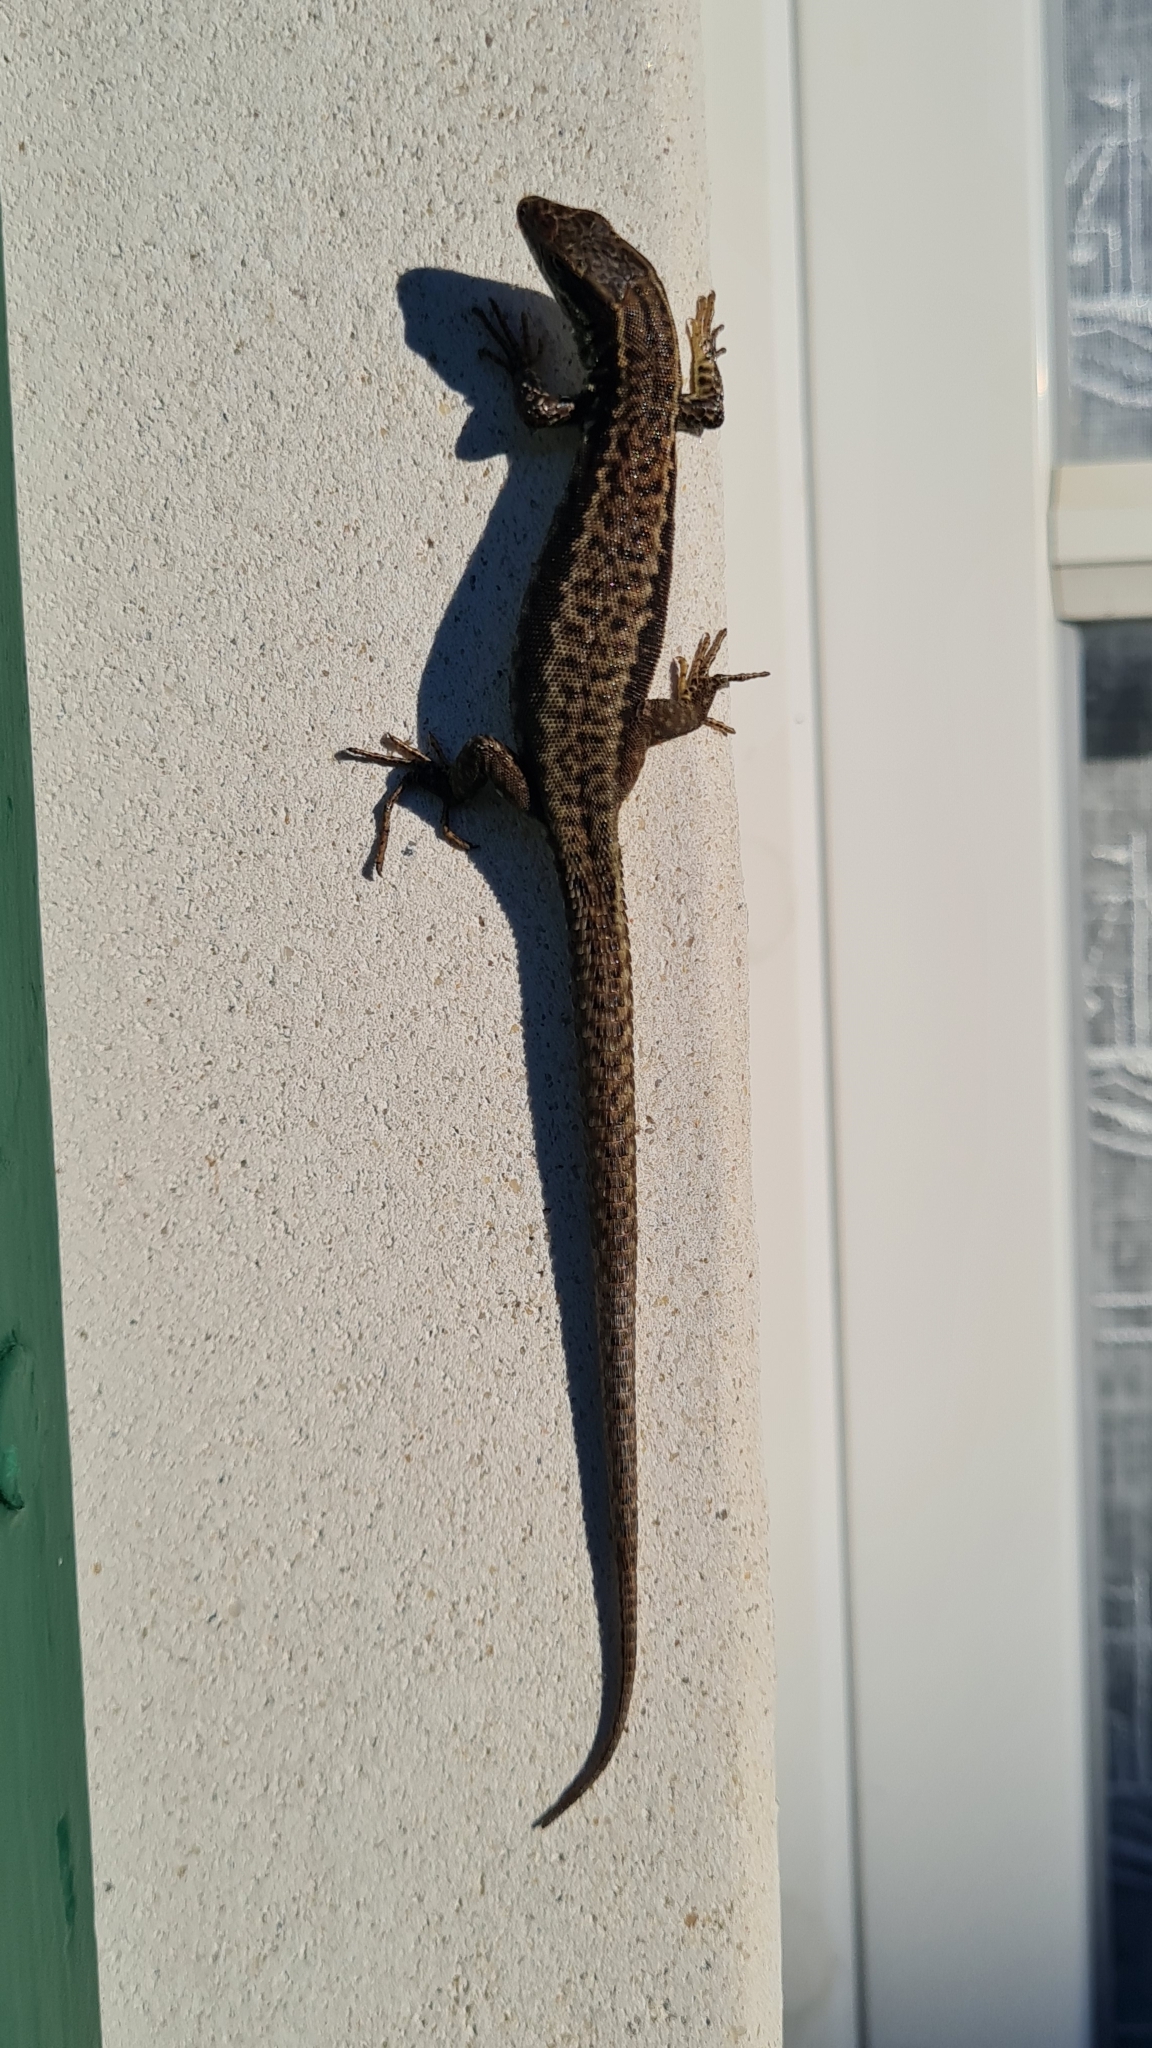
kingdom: Animalia
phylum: Chordata
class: Squamata
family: Lacertidae
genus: Podarcis
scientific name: Podarcis muralis
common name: Common wall lizard
